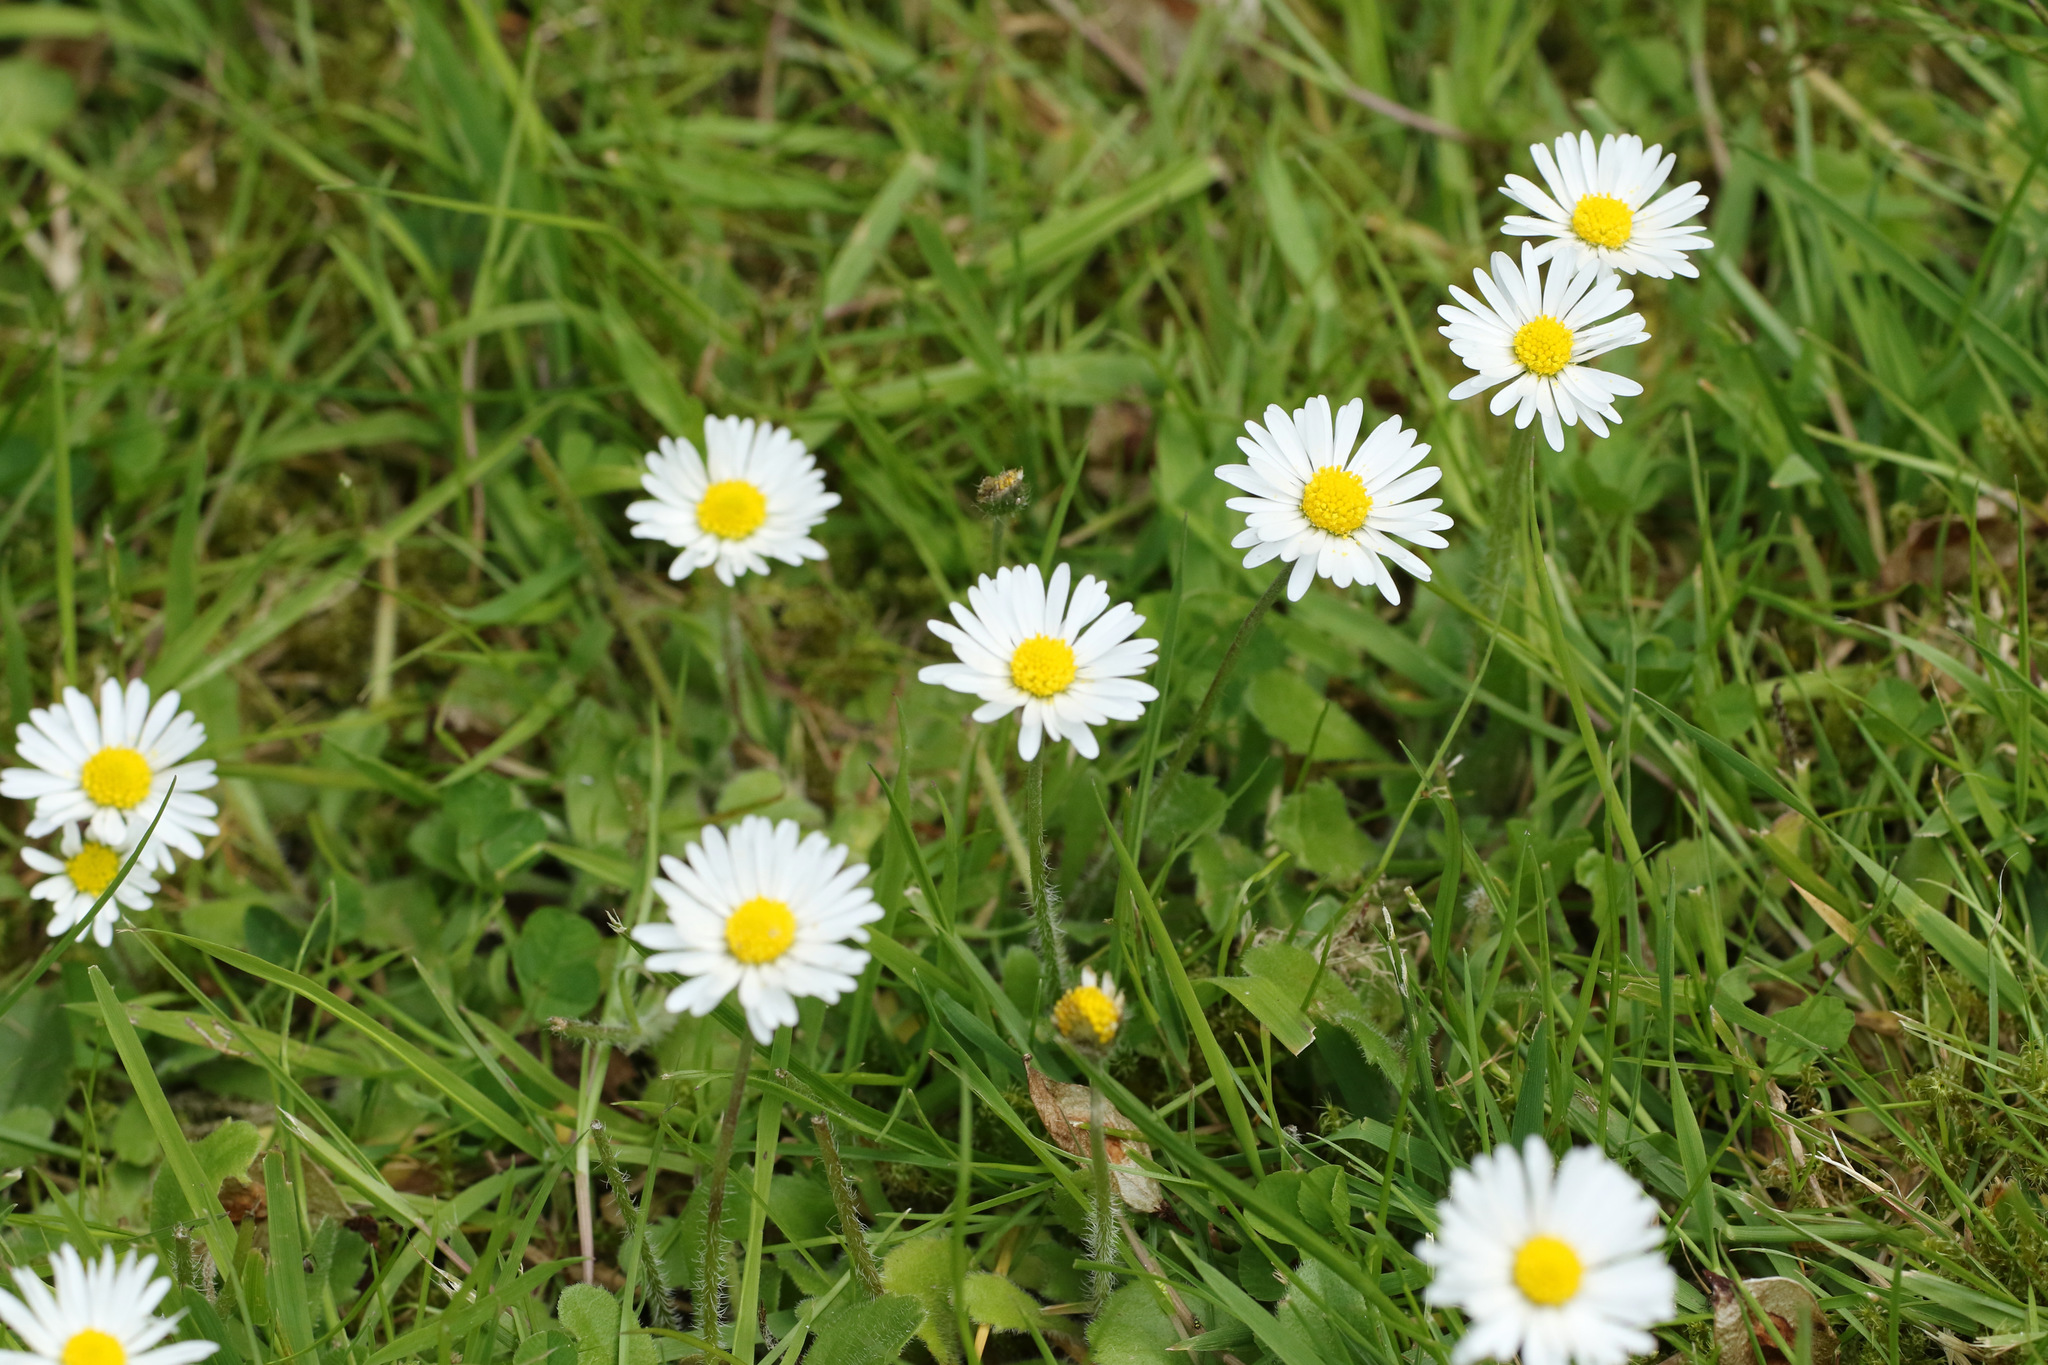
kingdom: Plantae
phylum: Tracheophyta
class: Magnoliopsida
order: Asterales
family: Asteraceae
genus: Bellis
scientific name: Bellis perennis
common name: Lawndaisy
